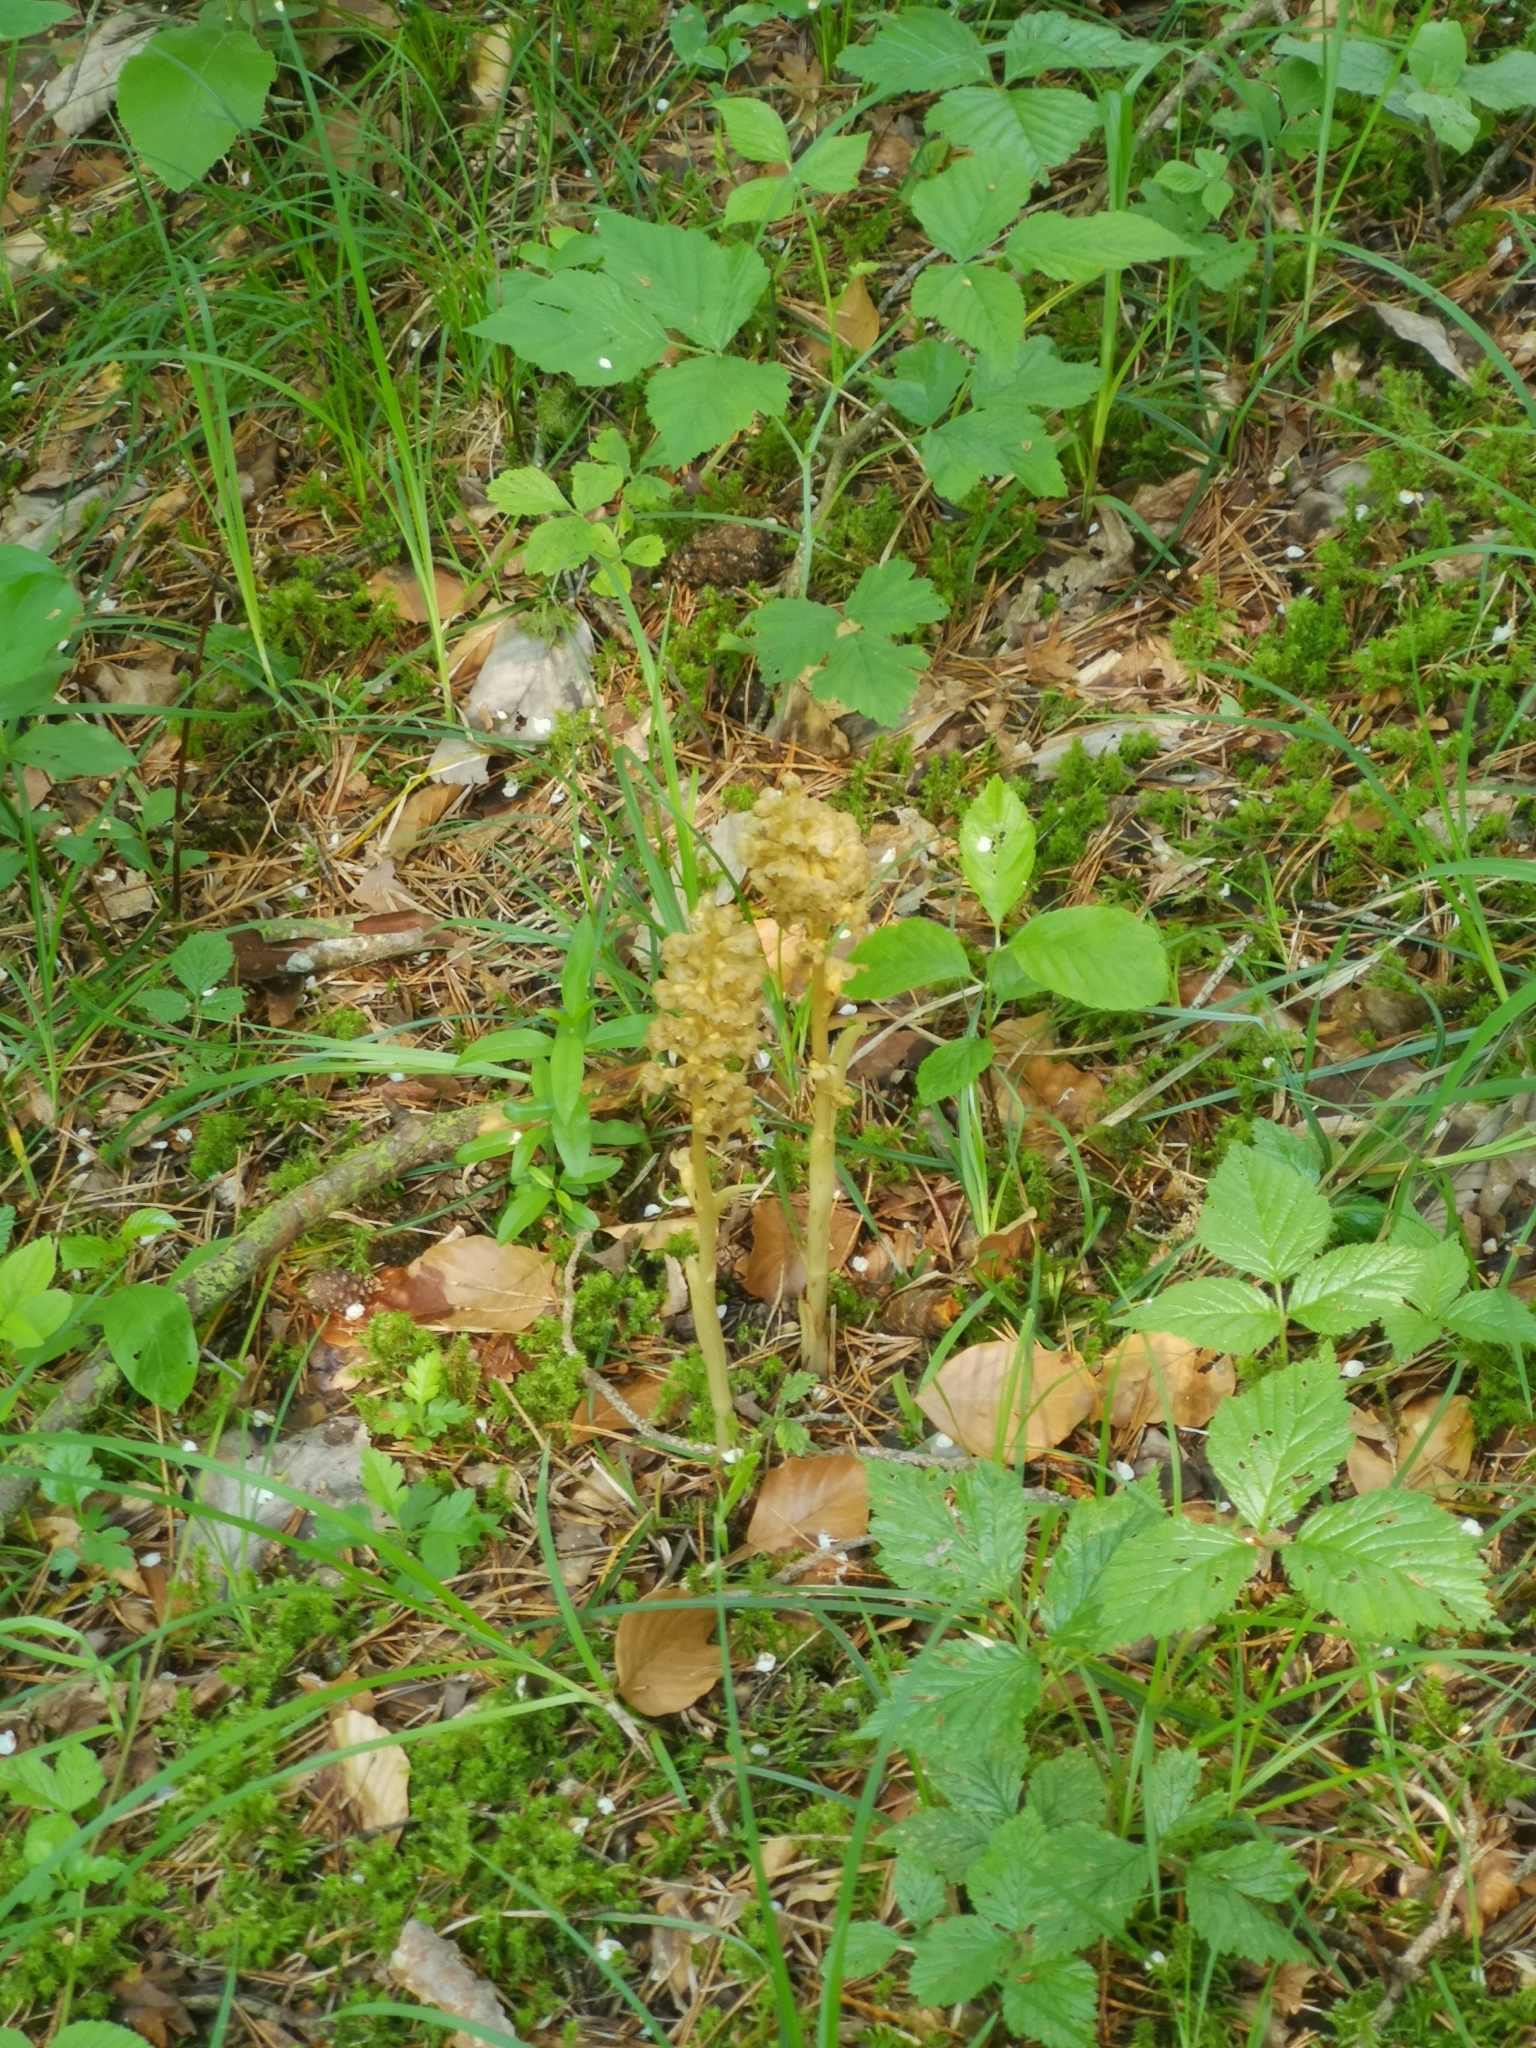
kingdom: Plantae
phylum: Tracheophyta
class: Liliopsida
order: Asparagales
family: Orchidaceae
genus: Neottia
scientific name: Neottia nidus-avis
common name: Bird's-nest orchid
